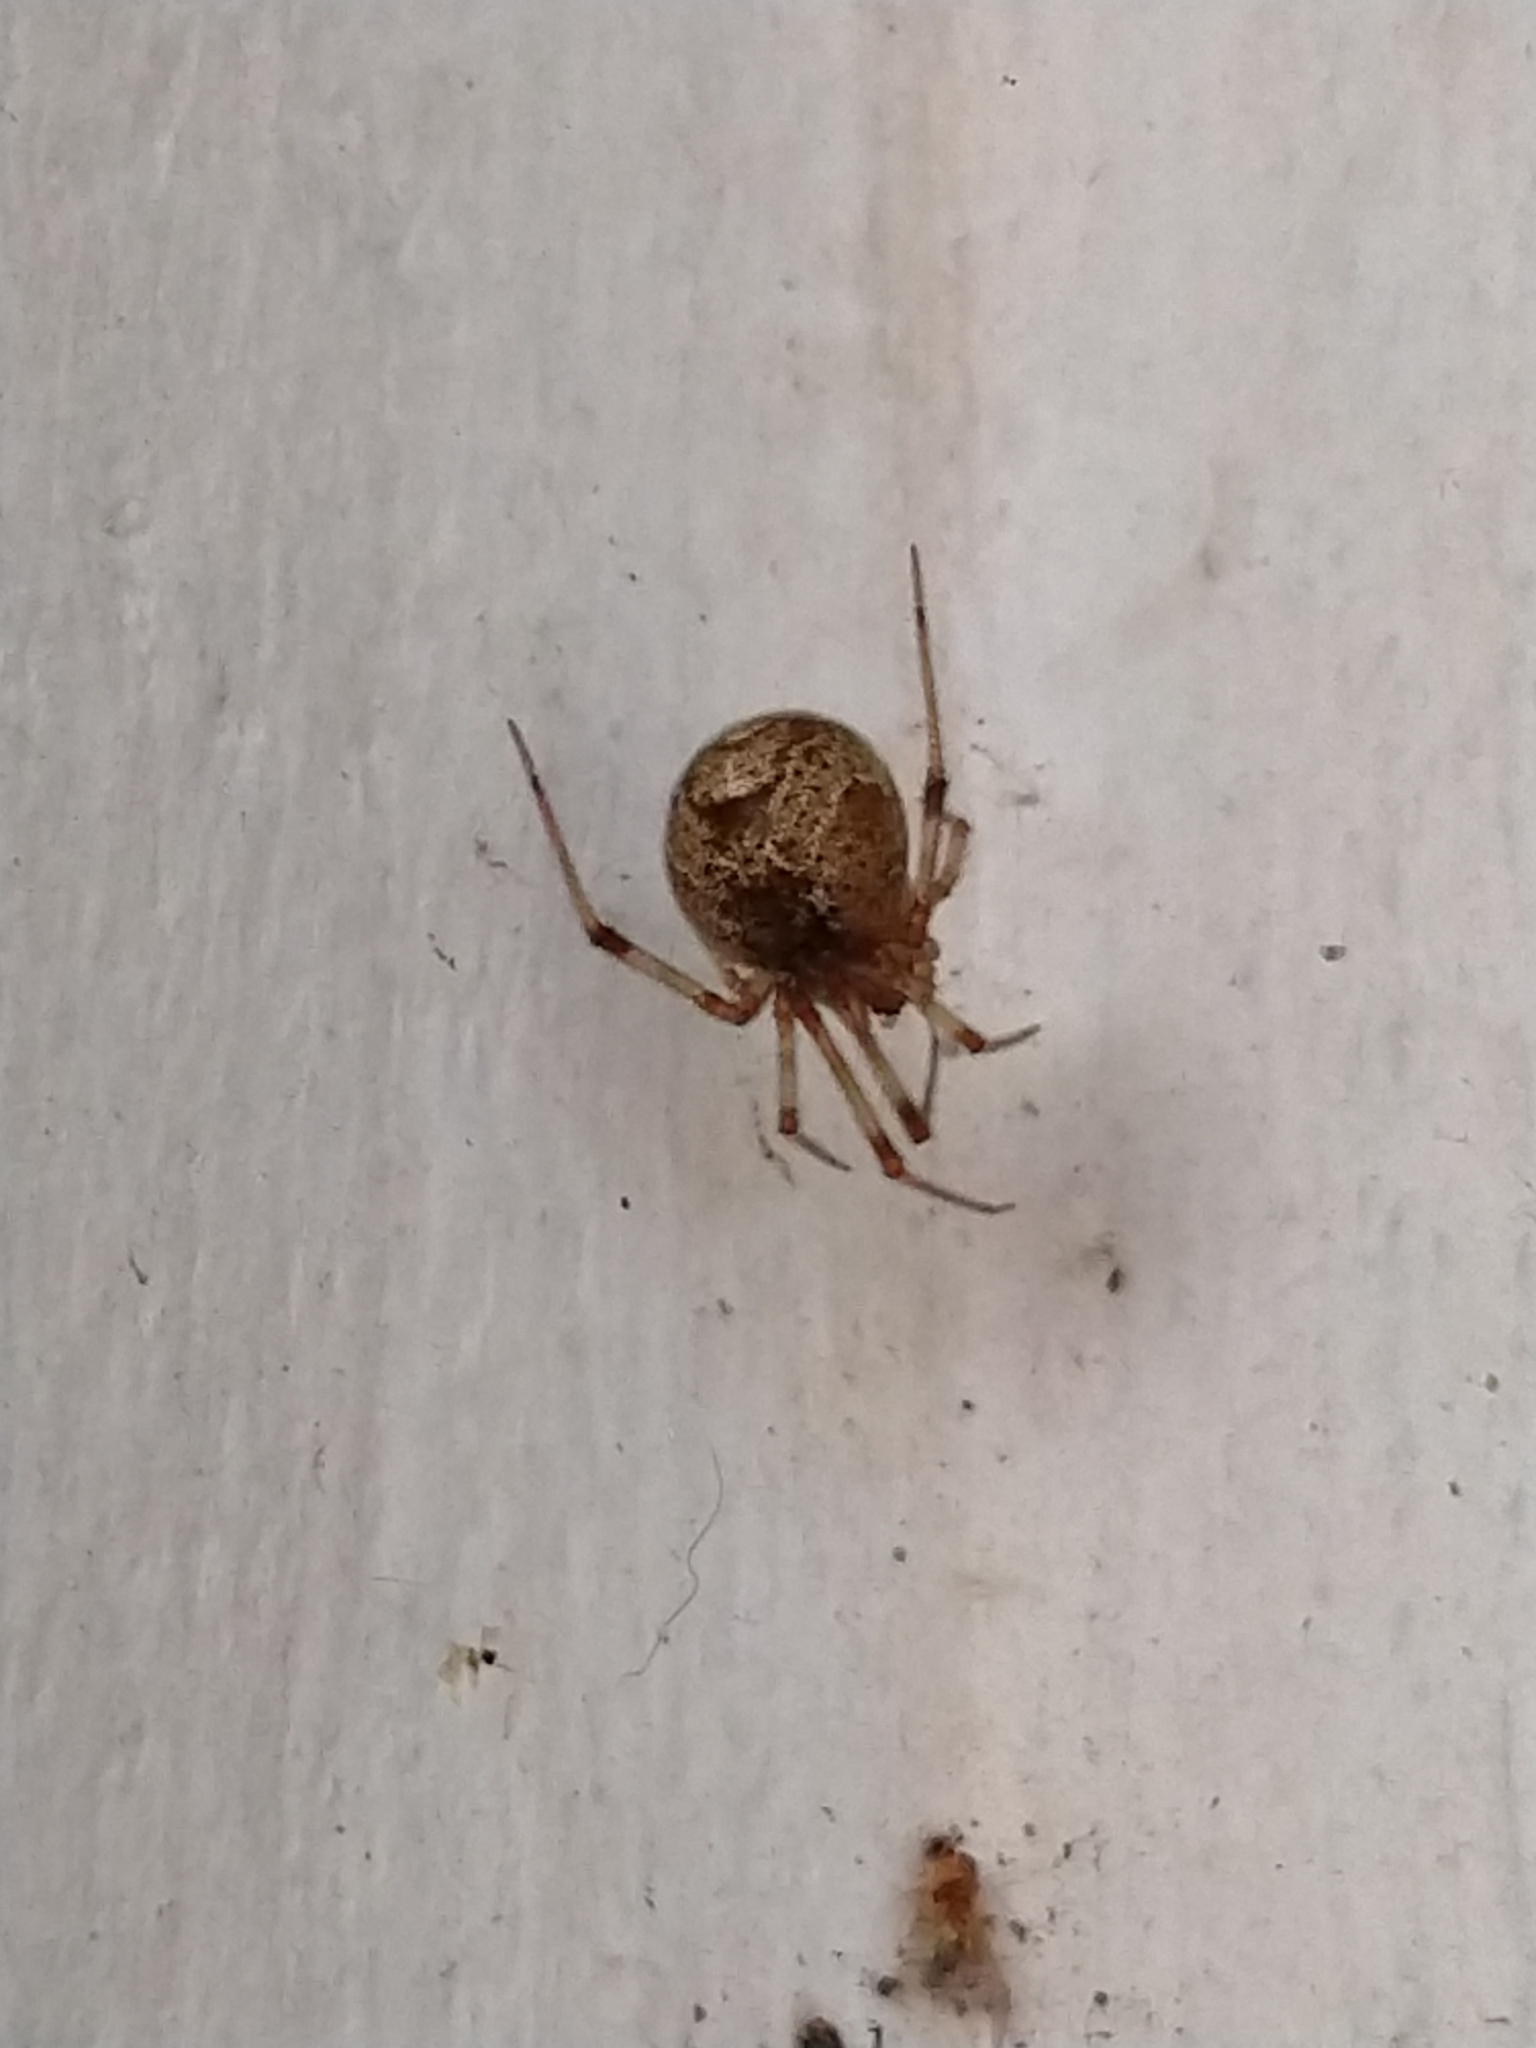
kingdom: Animalia
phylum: Arthropoda
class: Arachnida
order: Araneae
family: Theridiidae
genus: Parasteatoda
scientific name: Parasteatoda tepidariorum
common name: Common house spider
